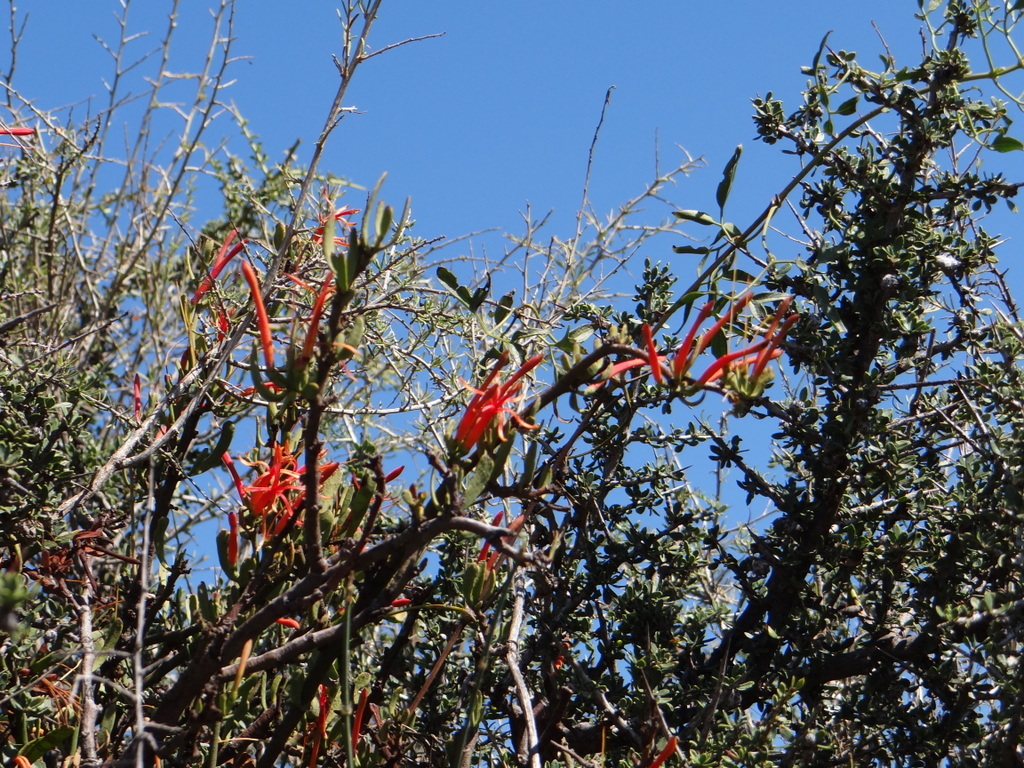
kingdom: Plantae
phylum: Tracheophyta
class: Magnoliopsida
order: Santalales
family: Loranthaceae
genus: Ligaria
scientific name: Ligaria cuneifolia
